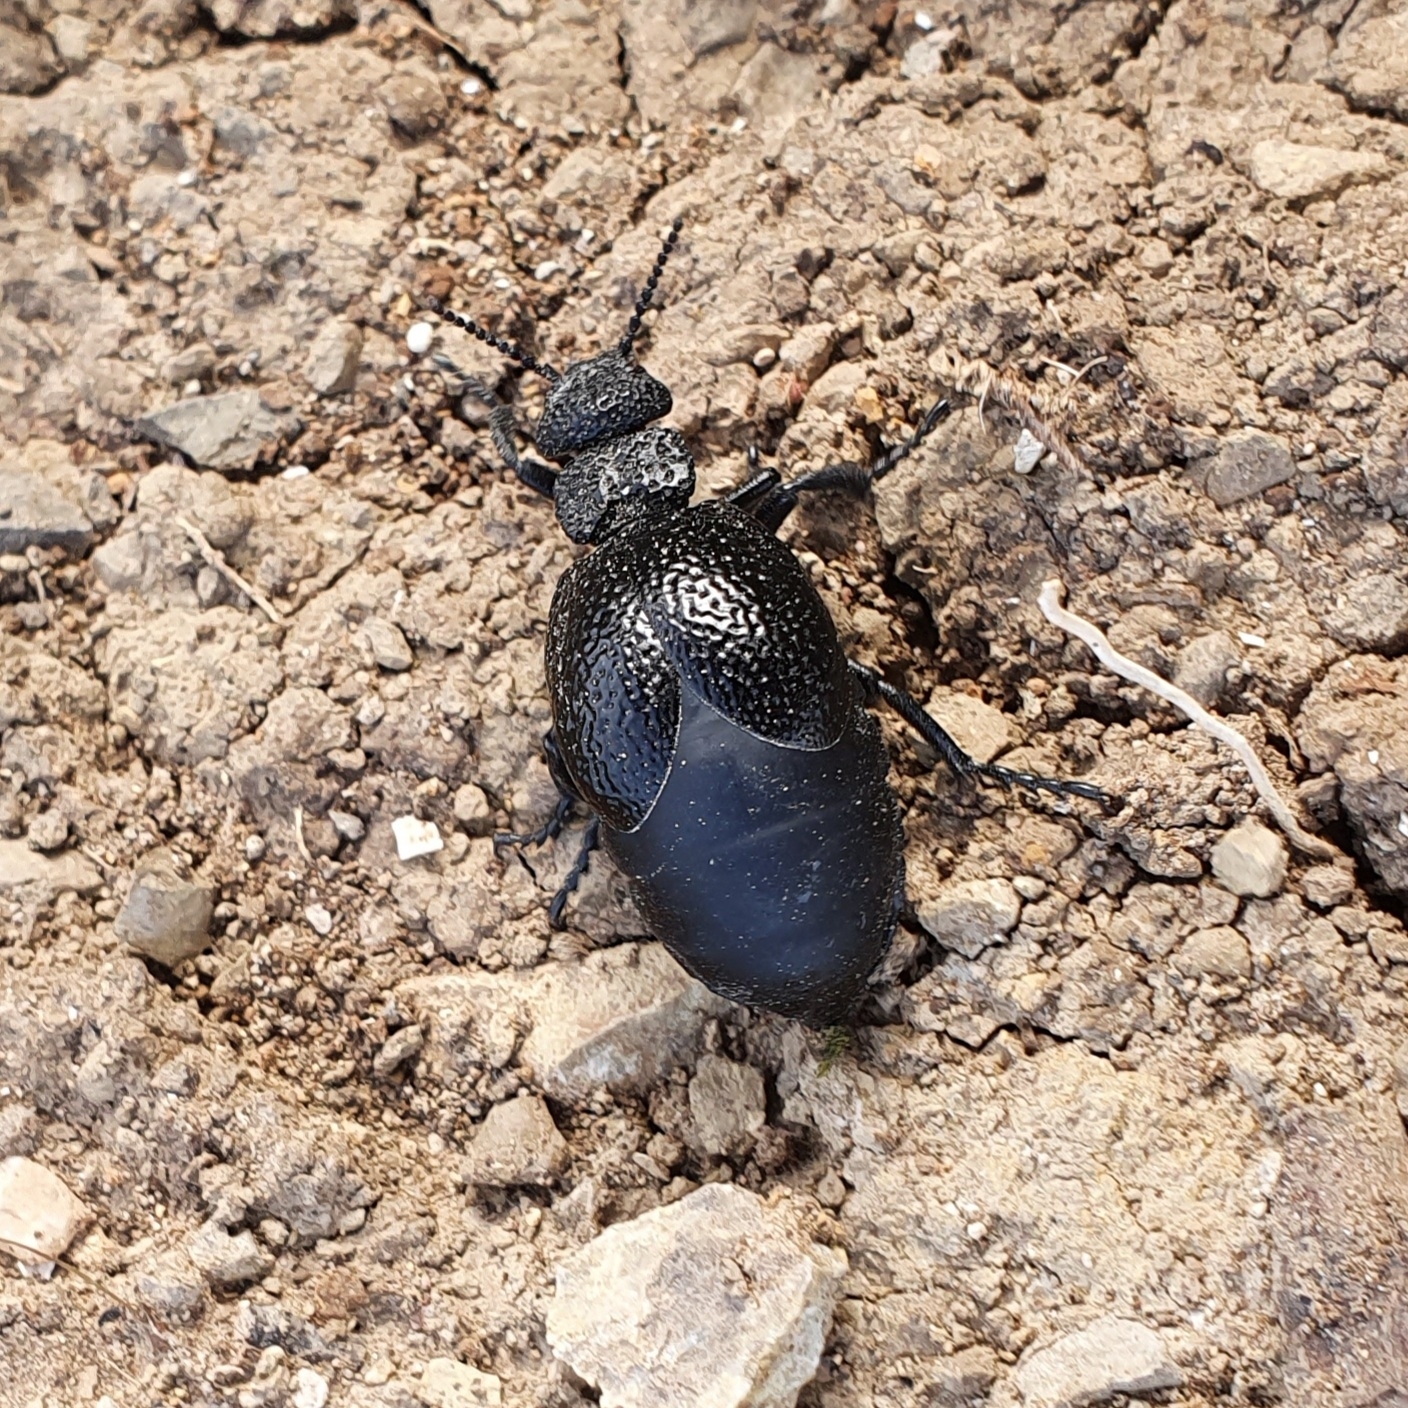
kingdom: Animalia
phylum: Arthropoda
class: Insecta
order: Coleoptera
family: Meloidae
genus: Meloe
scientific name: Meloe tuccius
